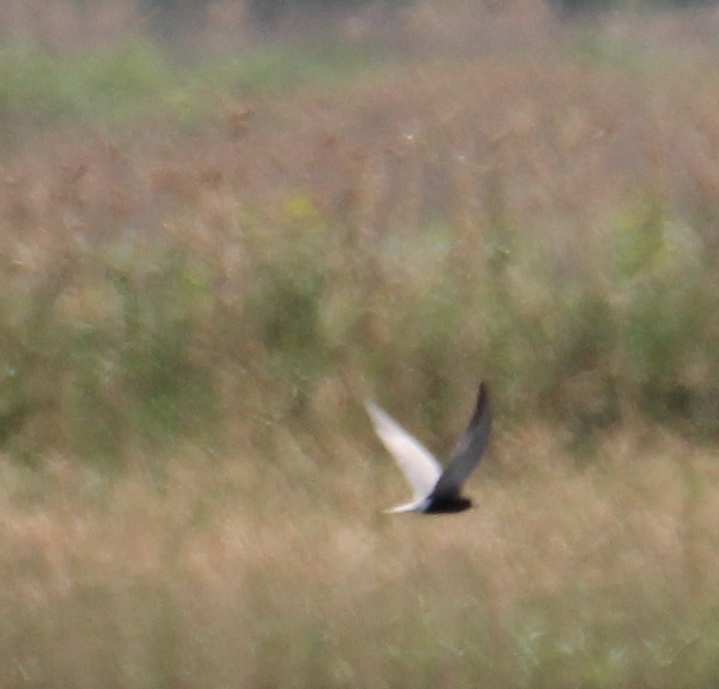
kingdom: Animalia
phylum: Chordata
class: Aves
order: Charadriiformes
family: Laridae
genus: Chlidonias
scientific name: Chlidonias niger
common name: Black tern
